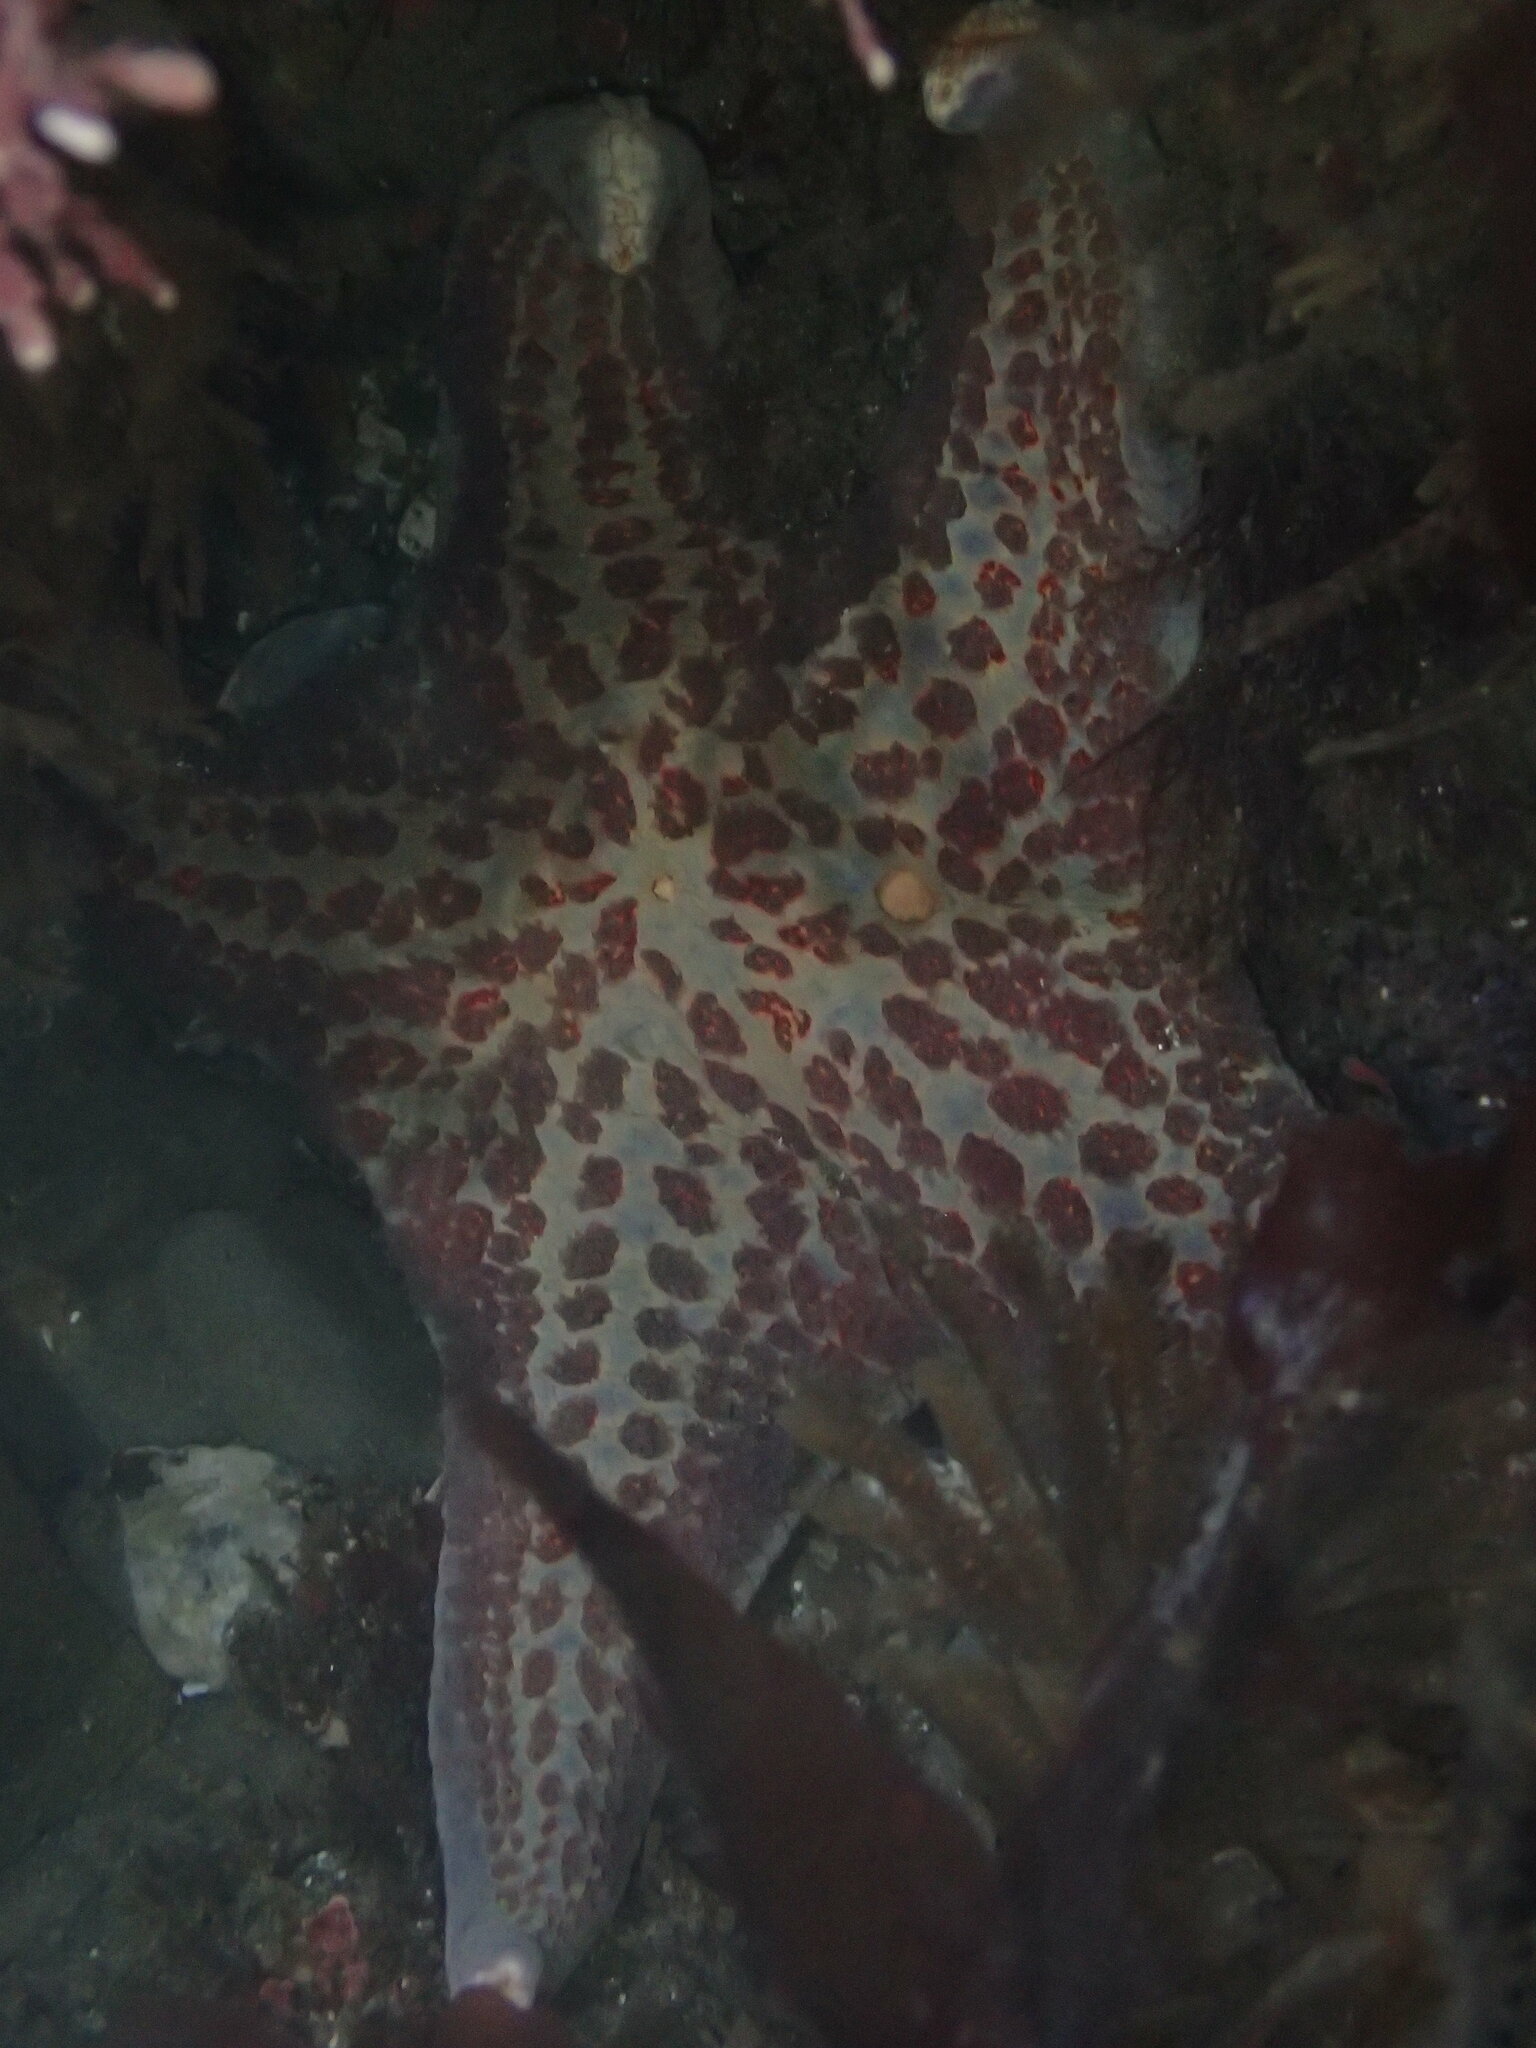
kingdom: Animalia
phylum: Echinodermata
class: Asteroidea
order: Valvatida
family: Asteropseidae
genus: Dermasterias
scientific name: Dermasterias imbricata
